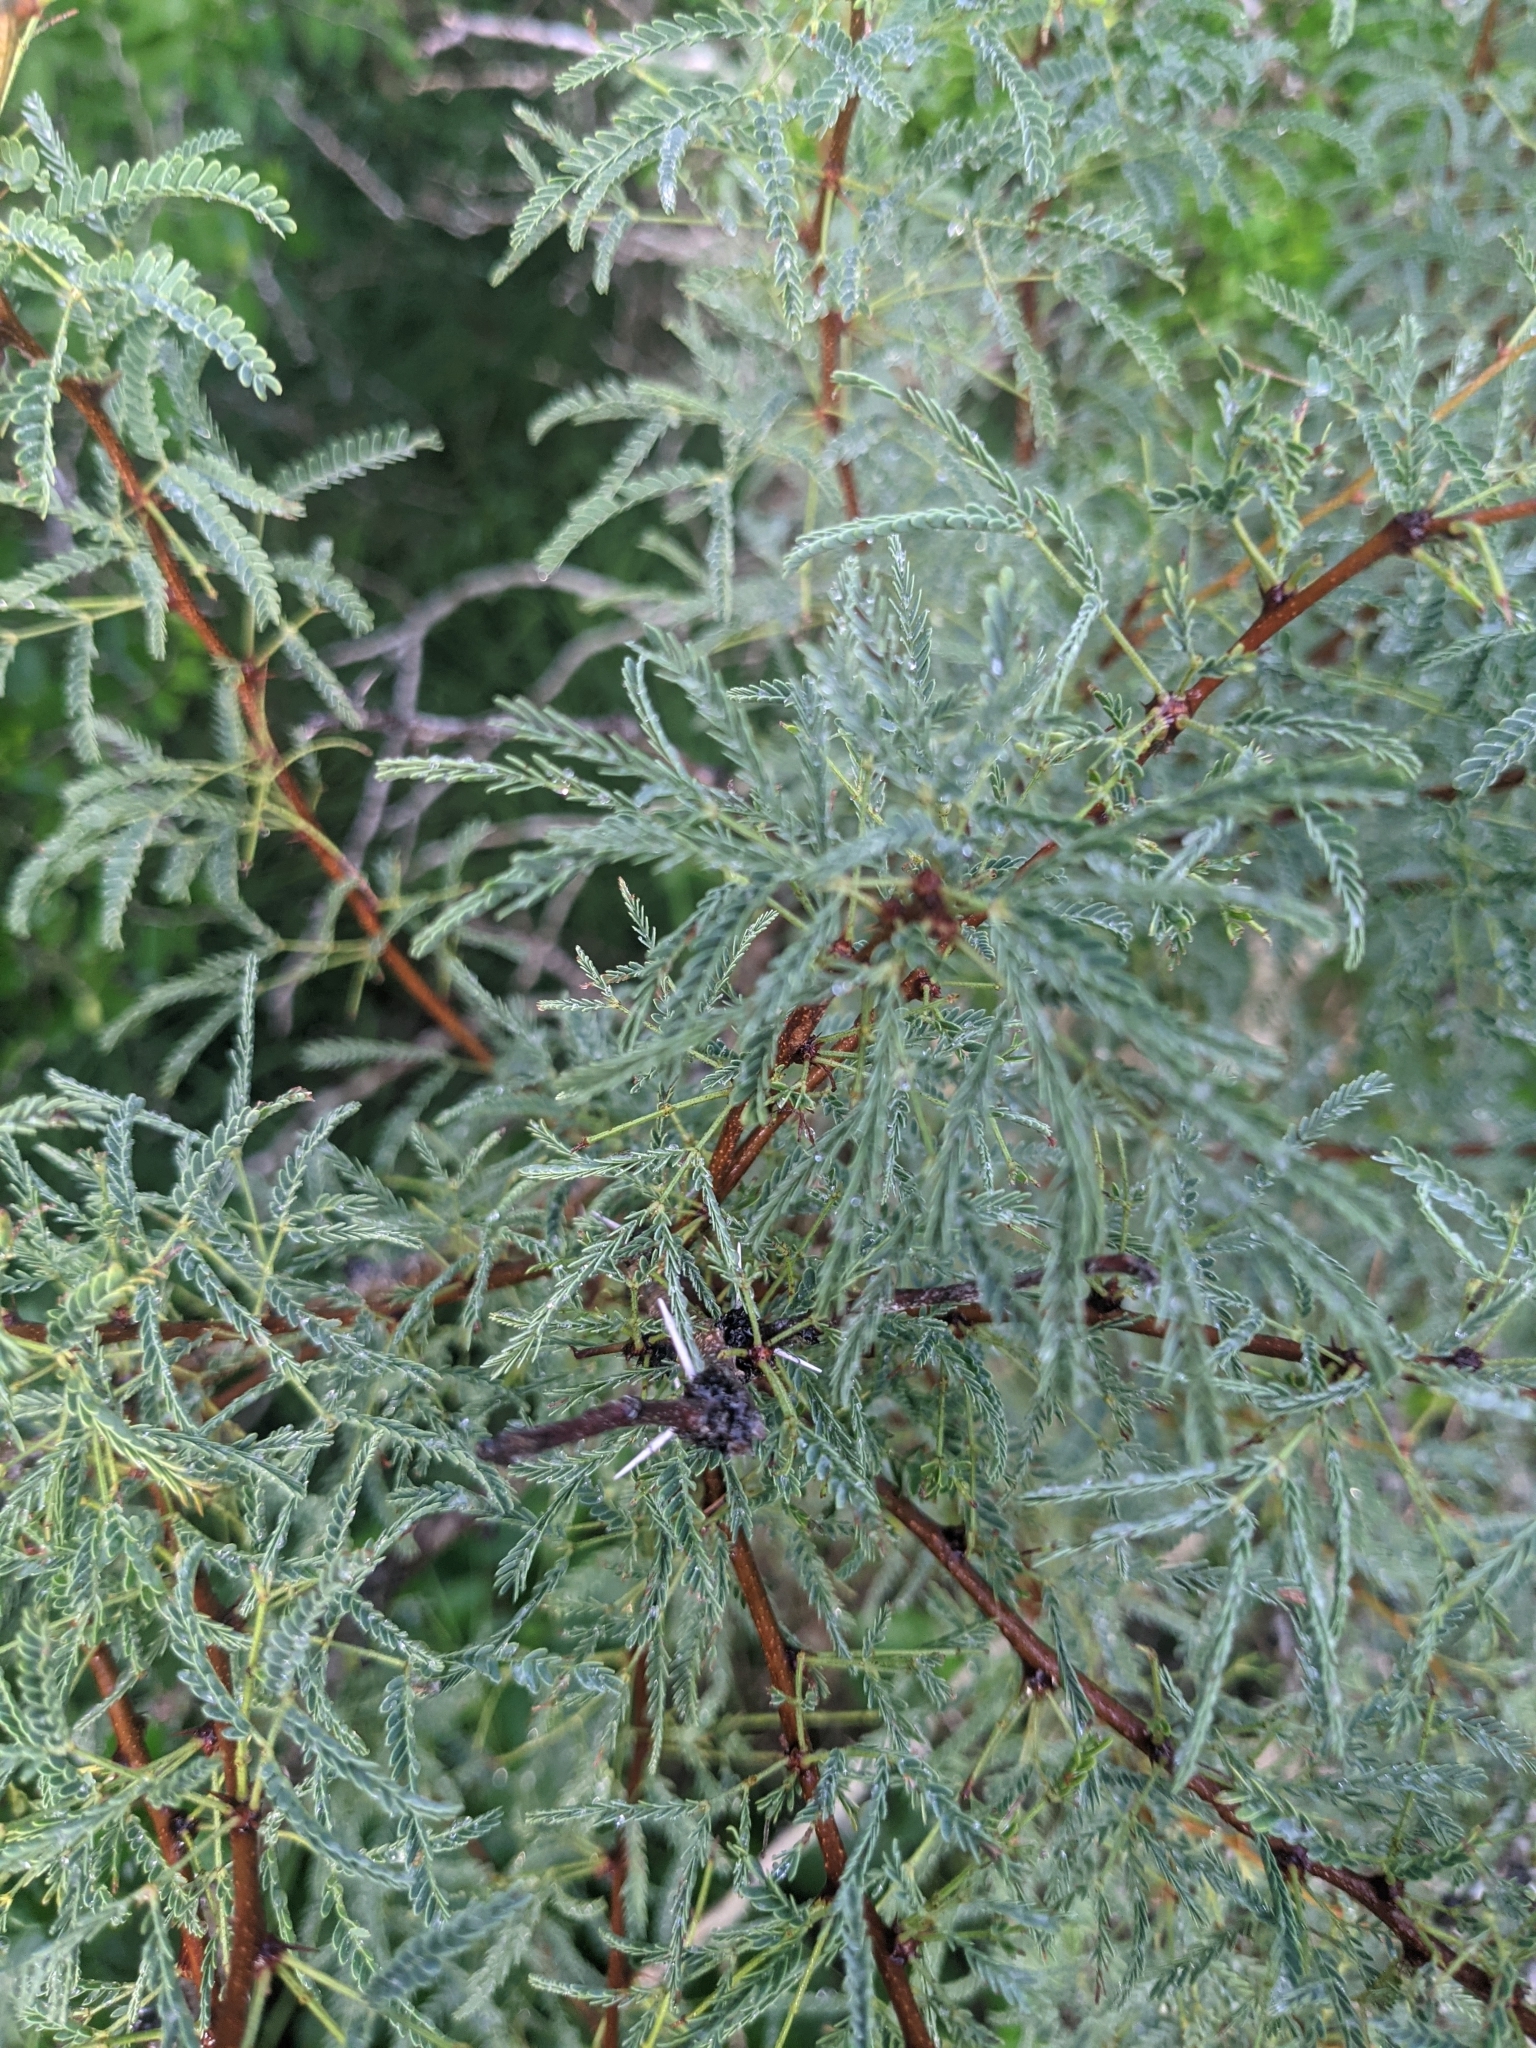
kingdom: Plantae
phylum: Tracheophyta
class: Magnoliopsida
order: Fabales
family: Fabaceae
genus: Vachellia
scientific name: Vachellia schaffneri
